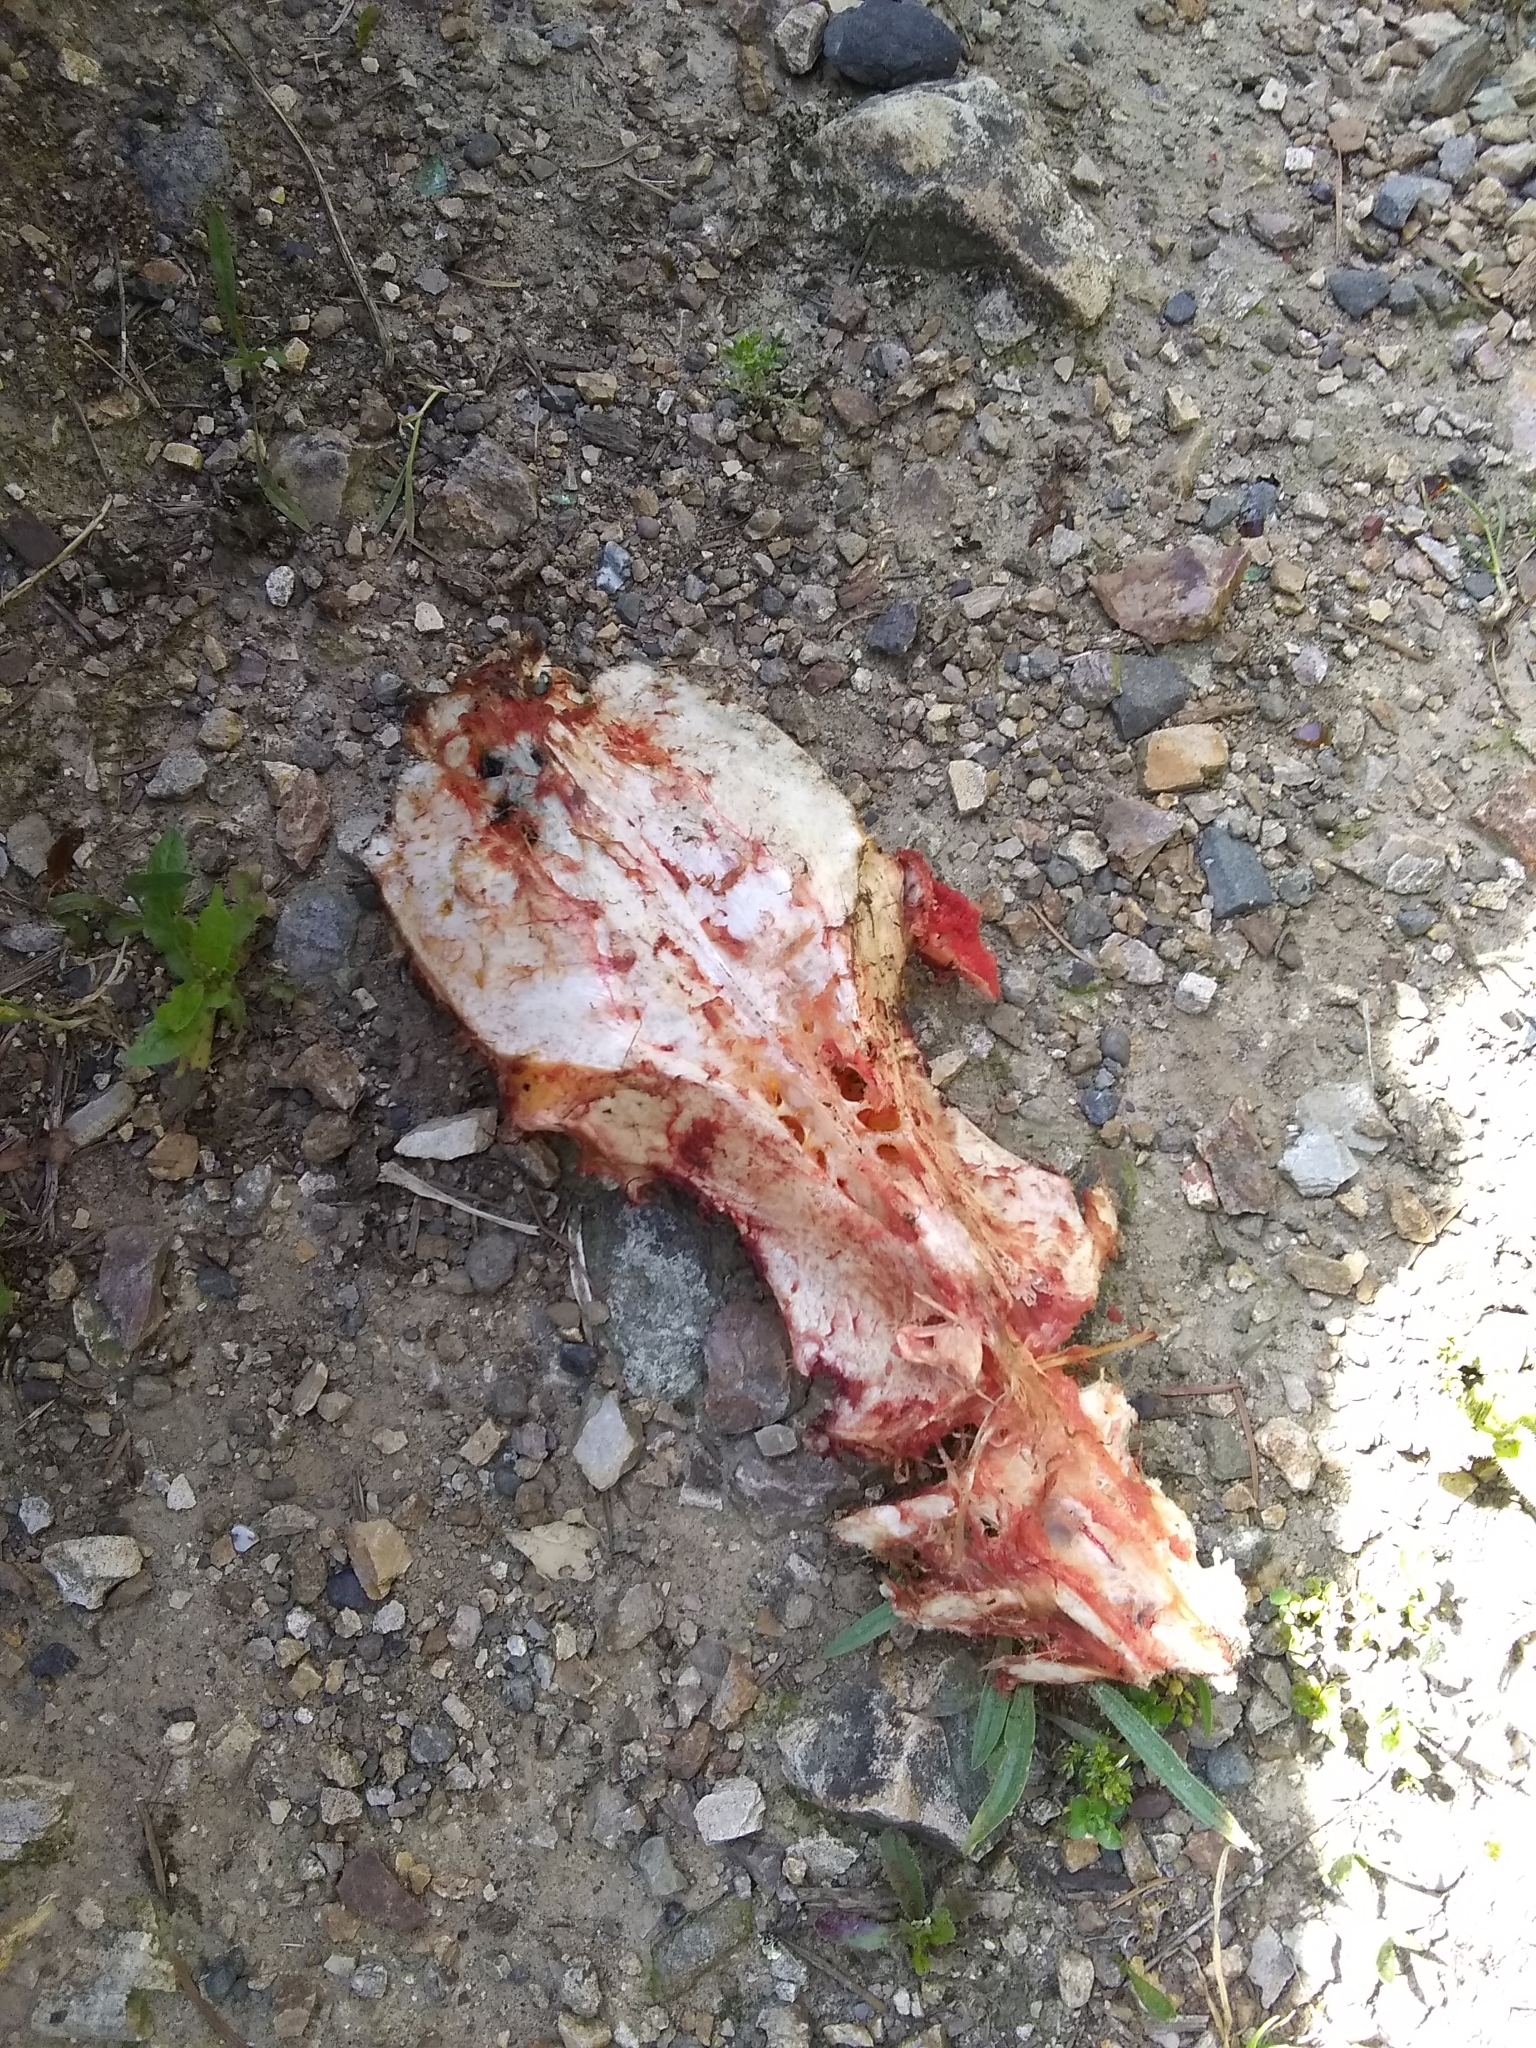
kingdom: Animalia
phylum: Chordata
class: Aves
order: Galliformes
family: Phasianidae
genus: Meleagris
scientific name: Meleagris gallopavo
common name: Wild turkey
